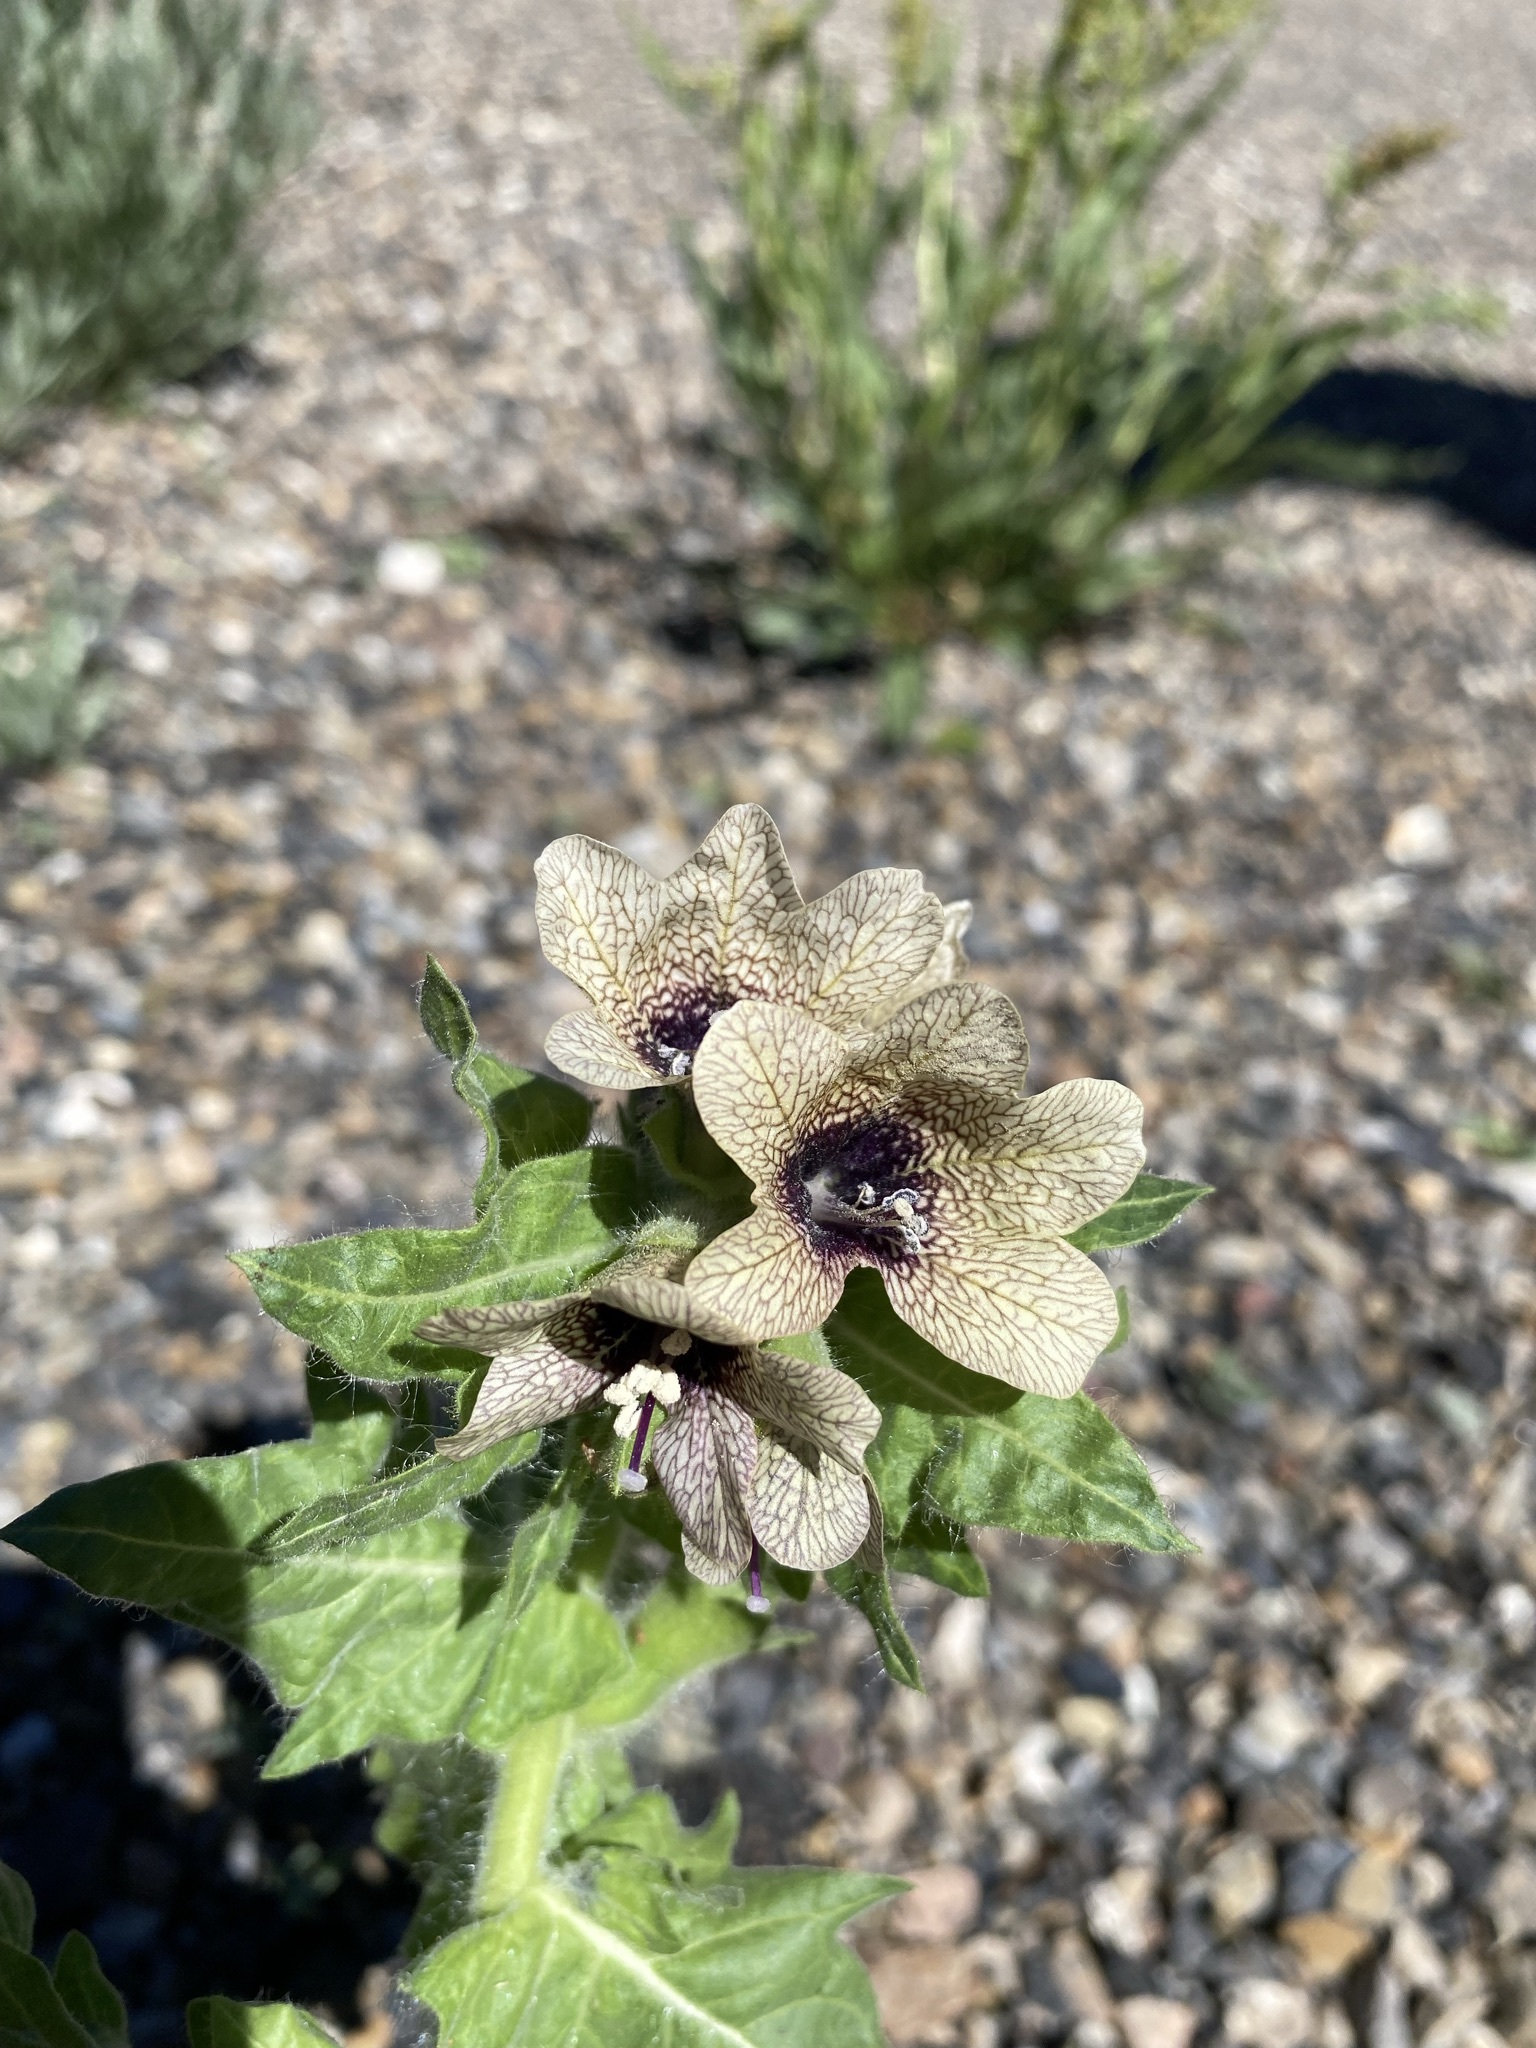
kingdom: Plantae
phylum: Tracheophyta
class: Magnoliopsida
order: Solanales
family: Solanaceae
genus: Hyoscyamus
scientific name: Hyoscyamus niger
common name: Henbane
